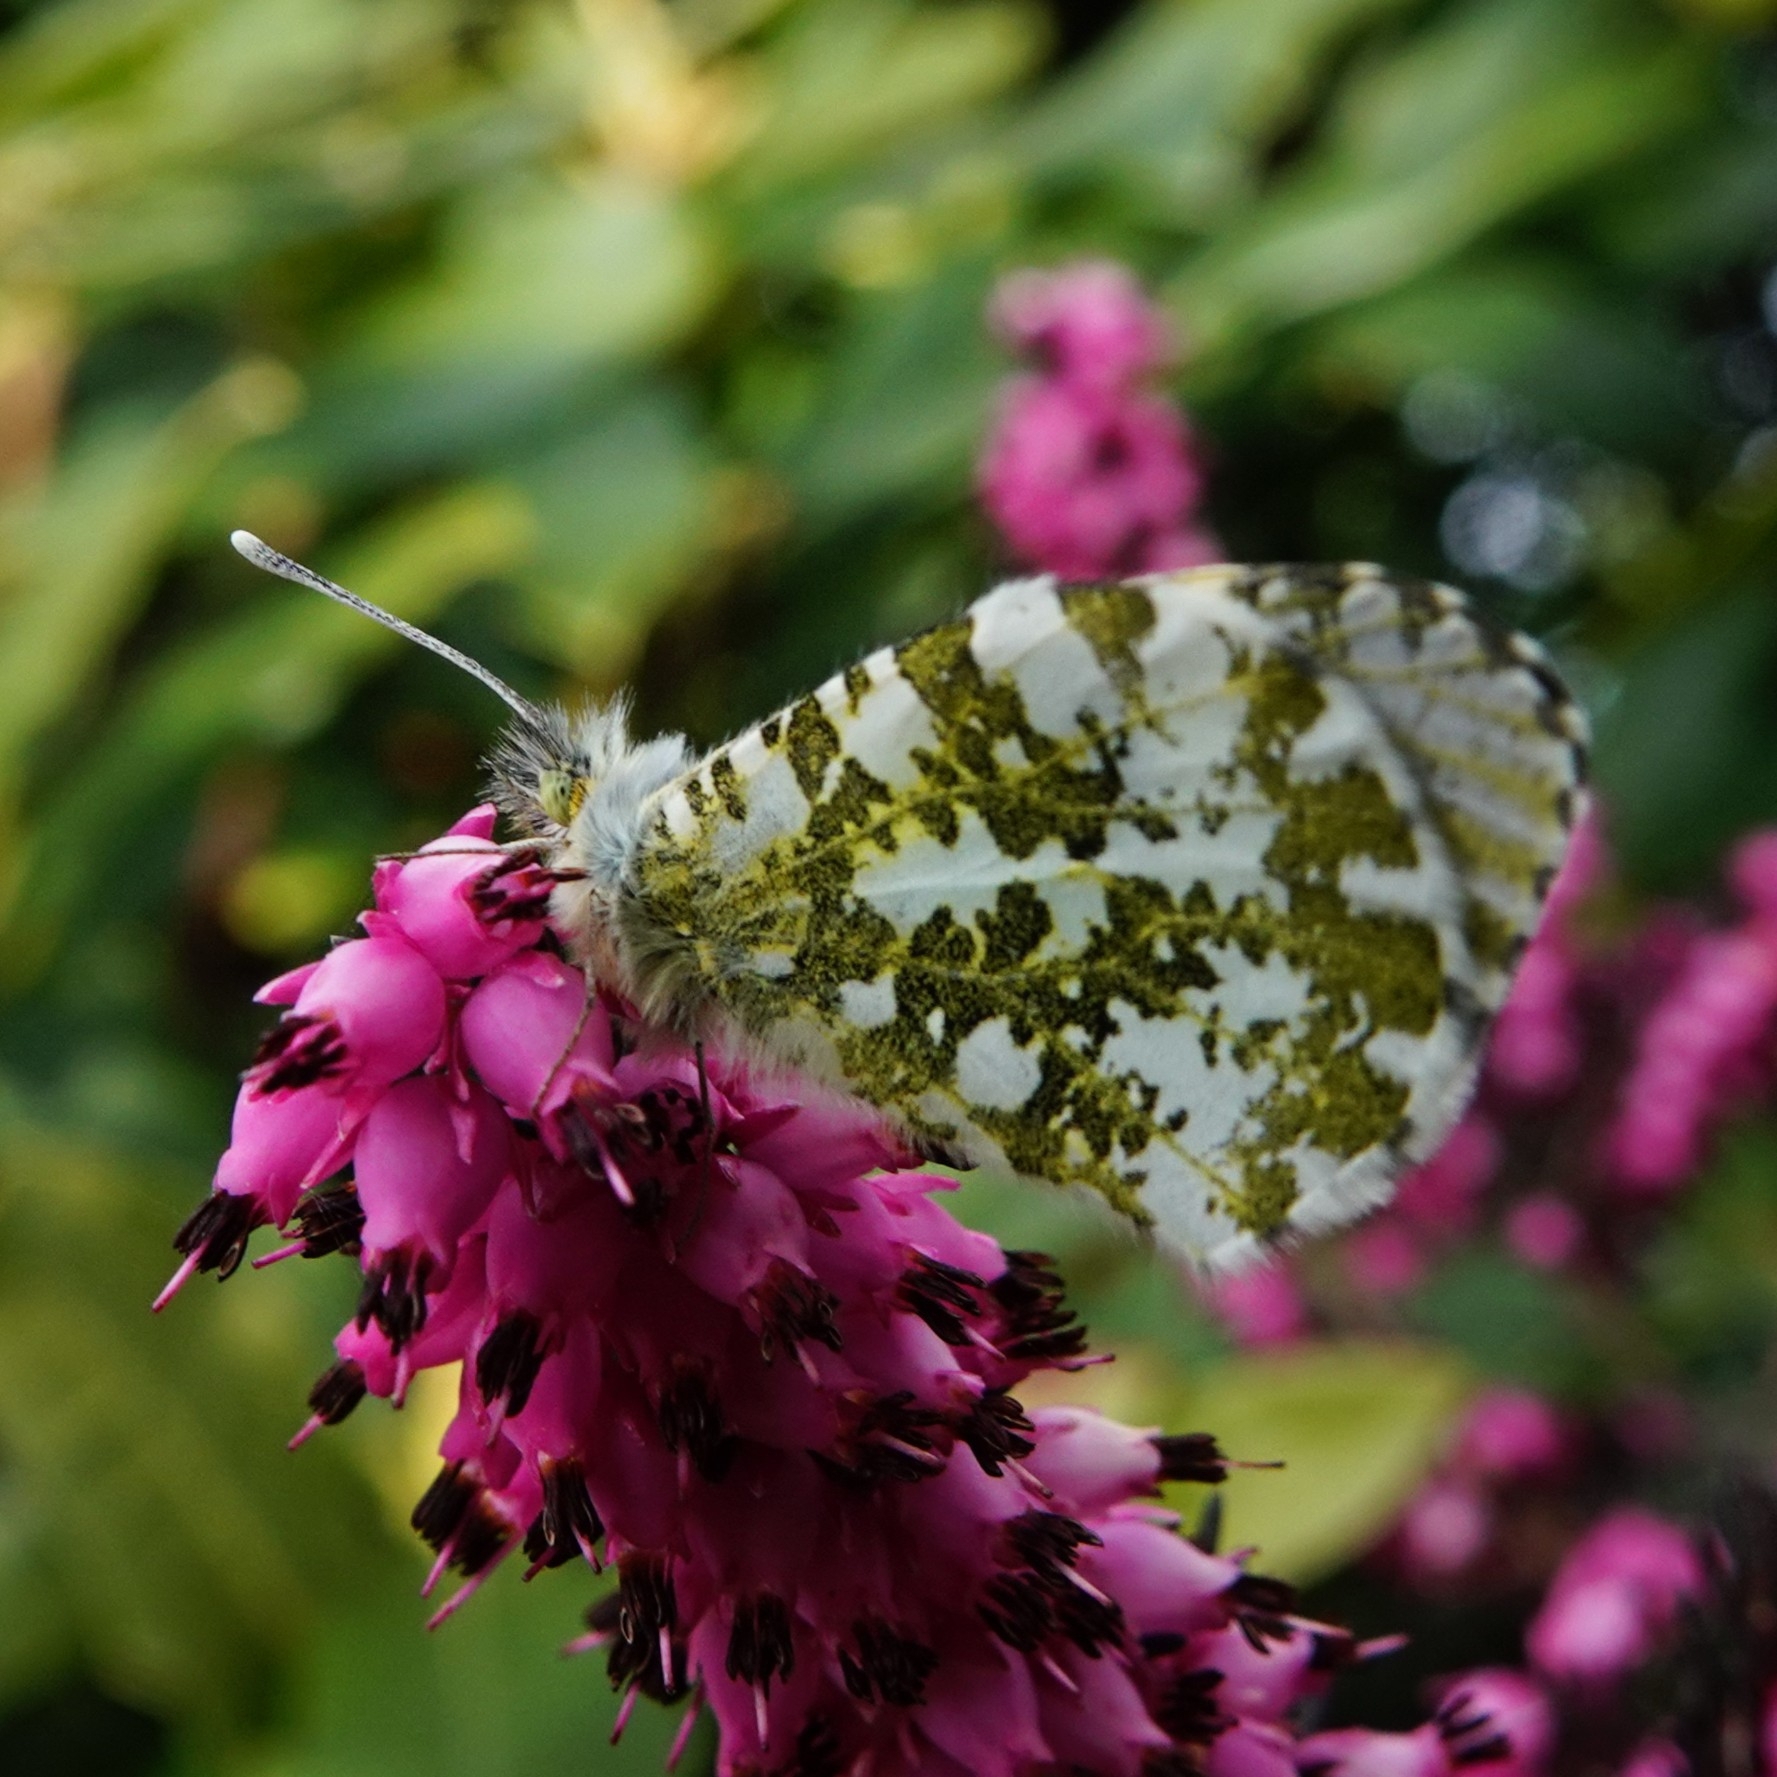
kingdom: Animalia
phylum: Arthropoda
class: Insecta
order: Lepidoptera
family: Pieridae
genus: Anthocharis
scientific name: Anthocharis cardamines
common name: Orange-tip
